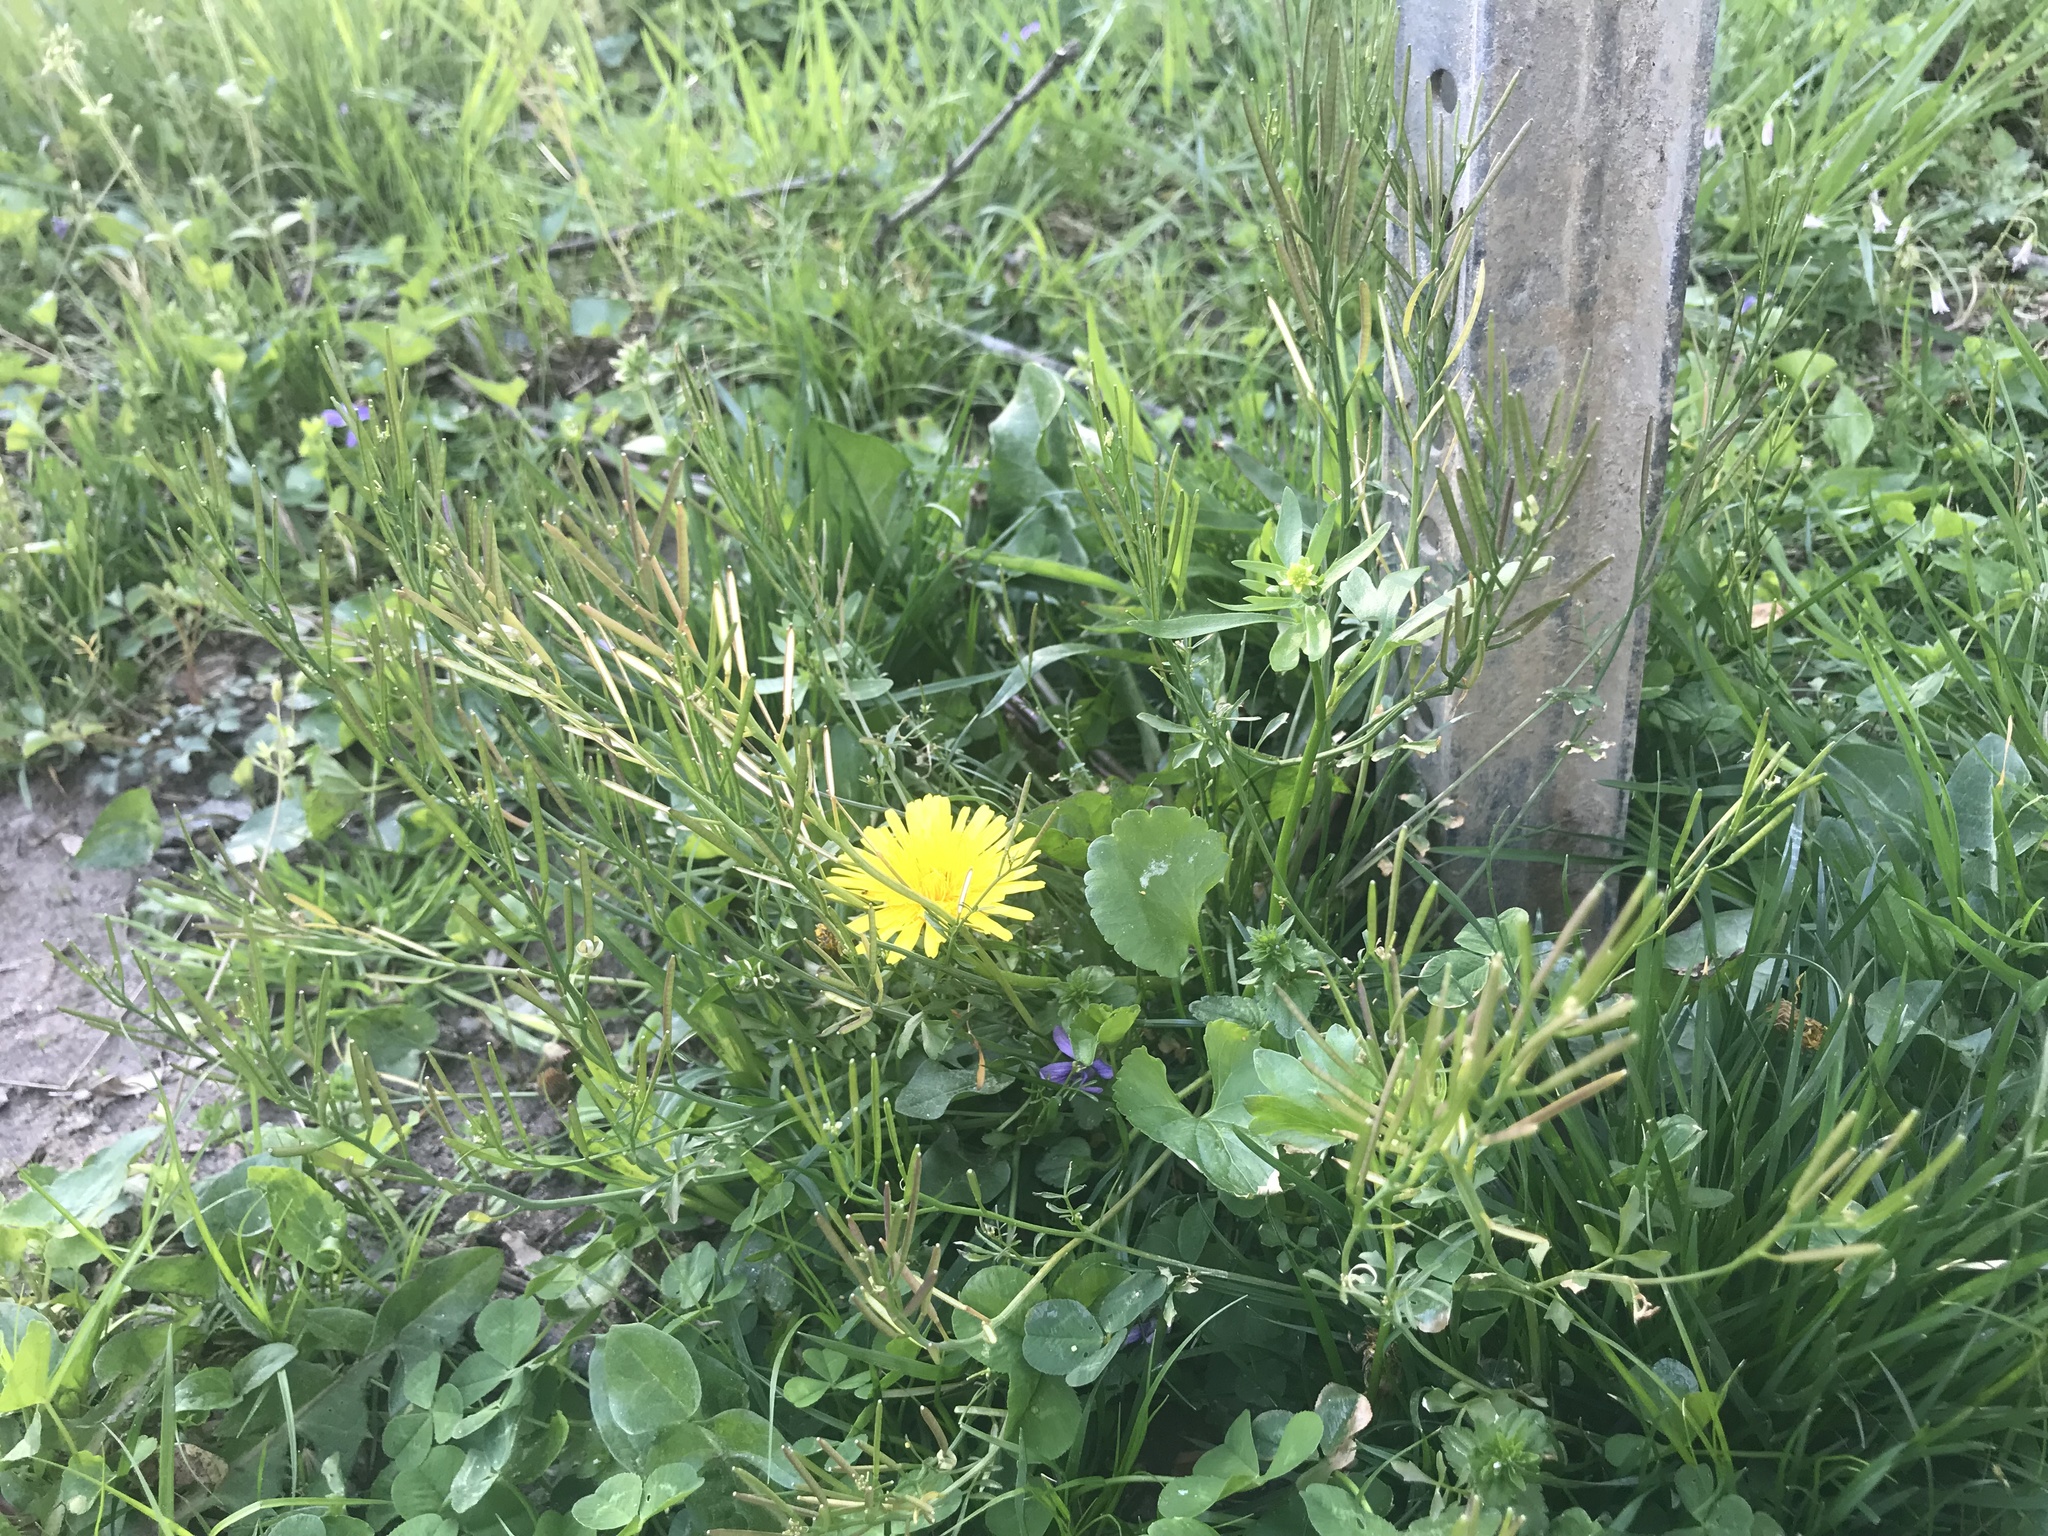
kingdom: Plantae
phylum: Tracheophyta
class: Magnoliopsida
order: Brassicales
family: Brassicaceae
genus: Cardamine
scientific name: Cardamine hirsuta
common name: Hairy bittercress
